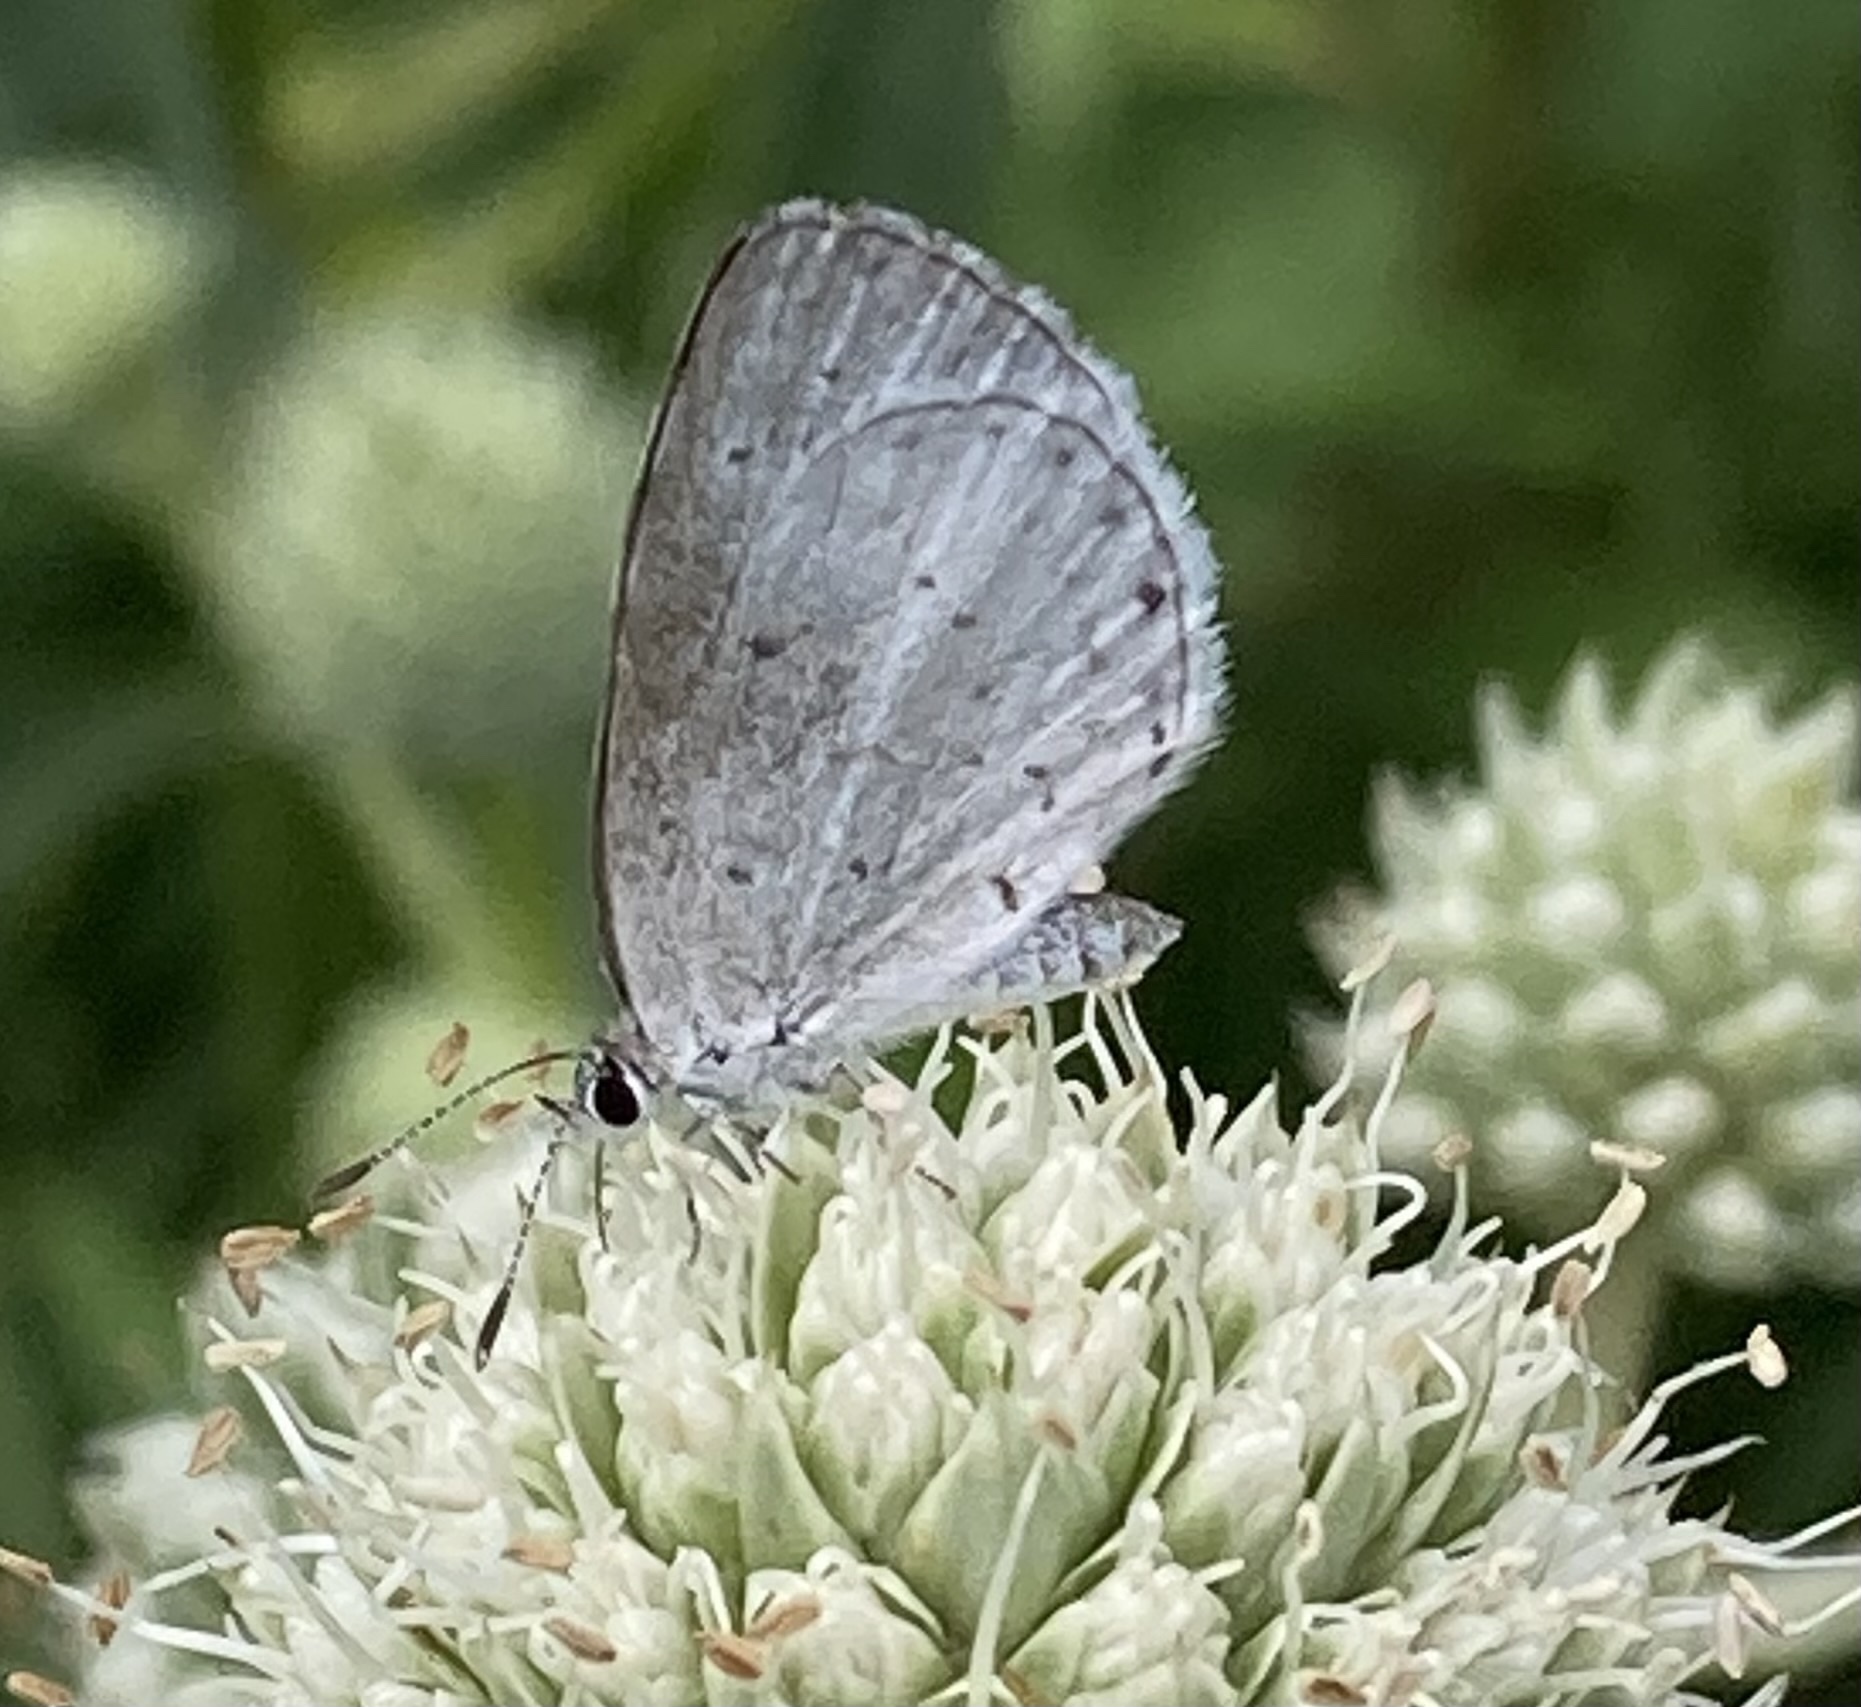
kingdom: Animalia
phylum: Arthropoda
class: Insecta
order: Lepidoptera
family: Lycaenidae
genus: Cyaniris
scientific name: Cyaniris neglecta
